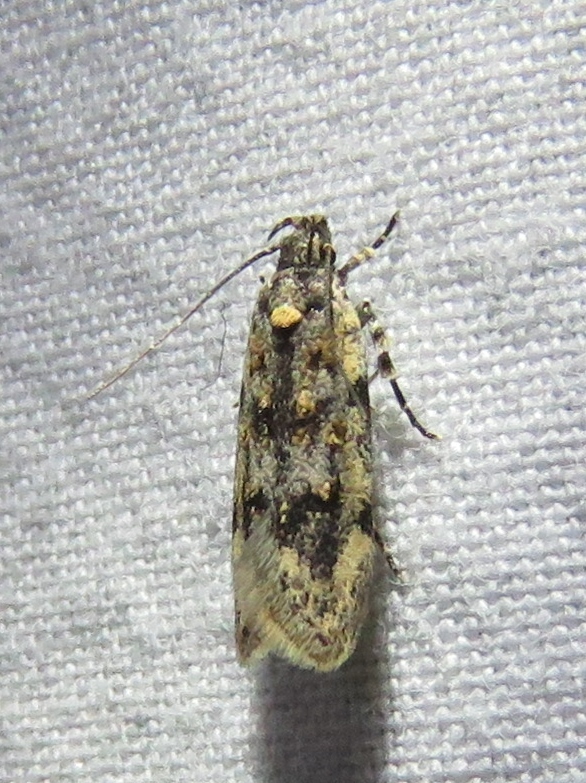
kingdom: Animalia
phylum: Arthropoda
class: Insecta
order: Lepidoptera
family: Gelechiidae
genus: Chionodes
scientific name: Chionodes bicostomaculella
